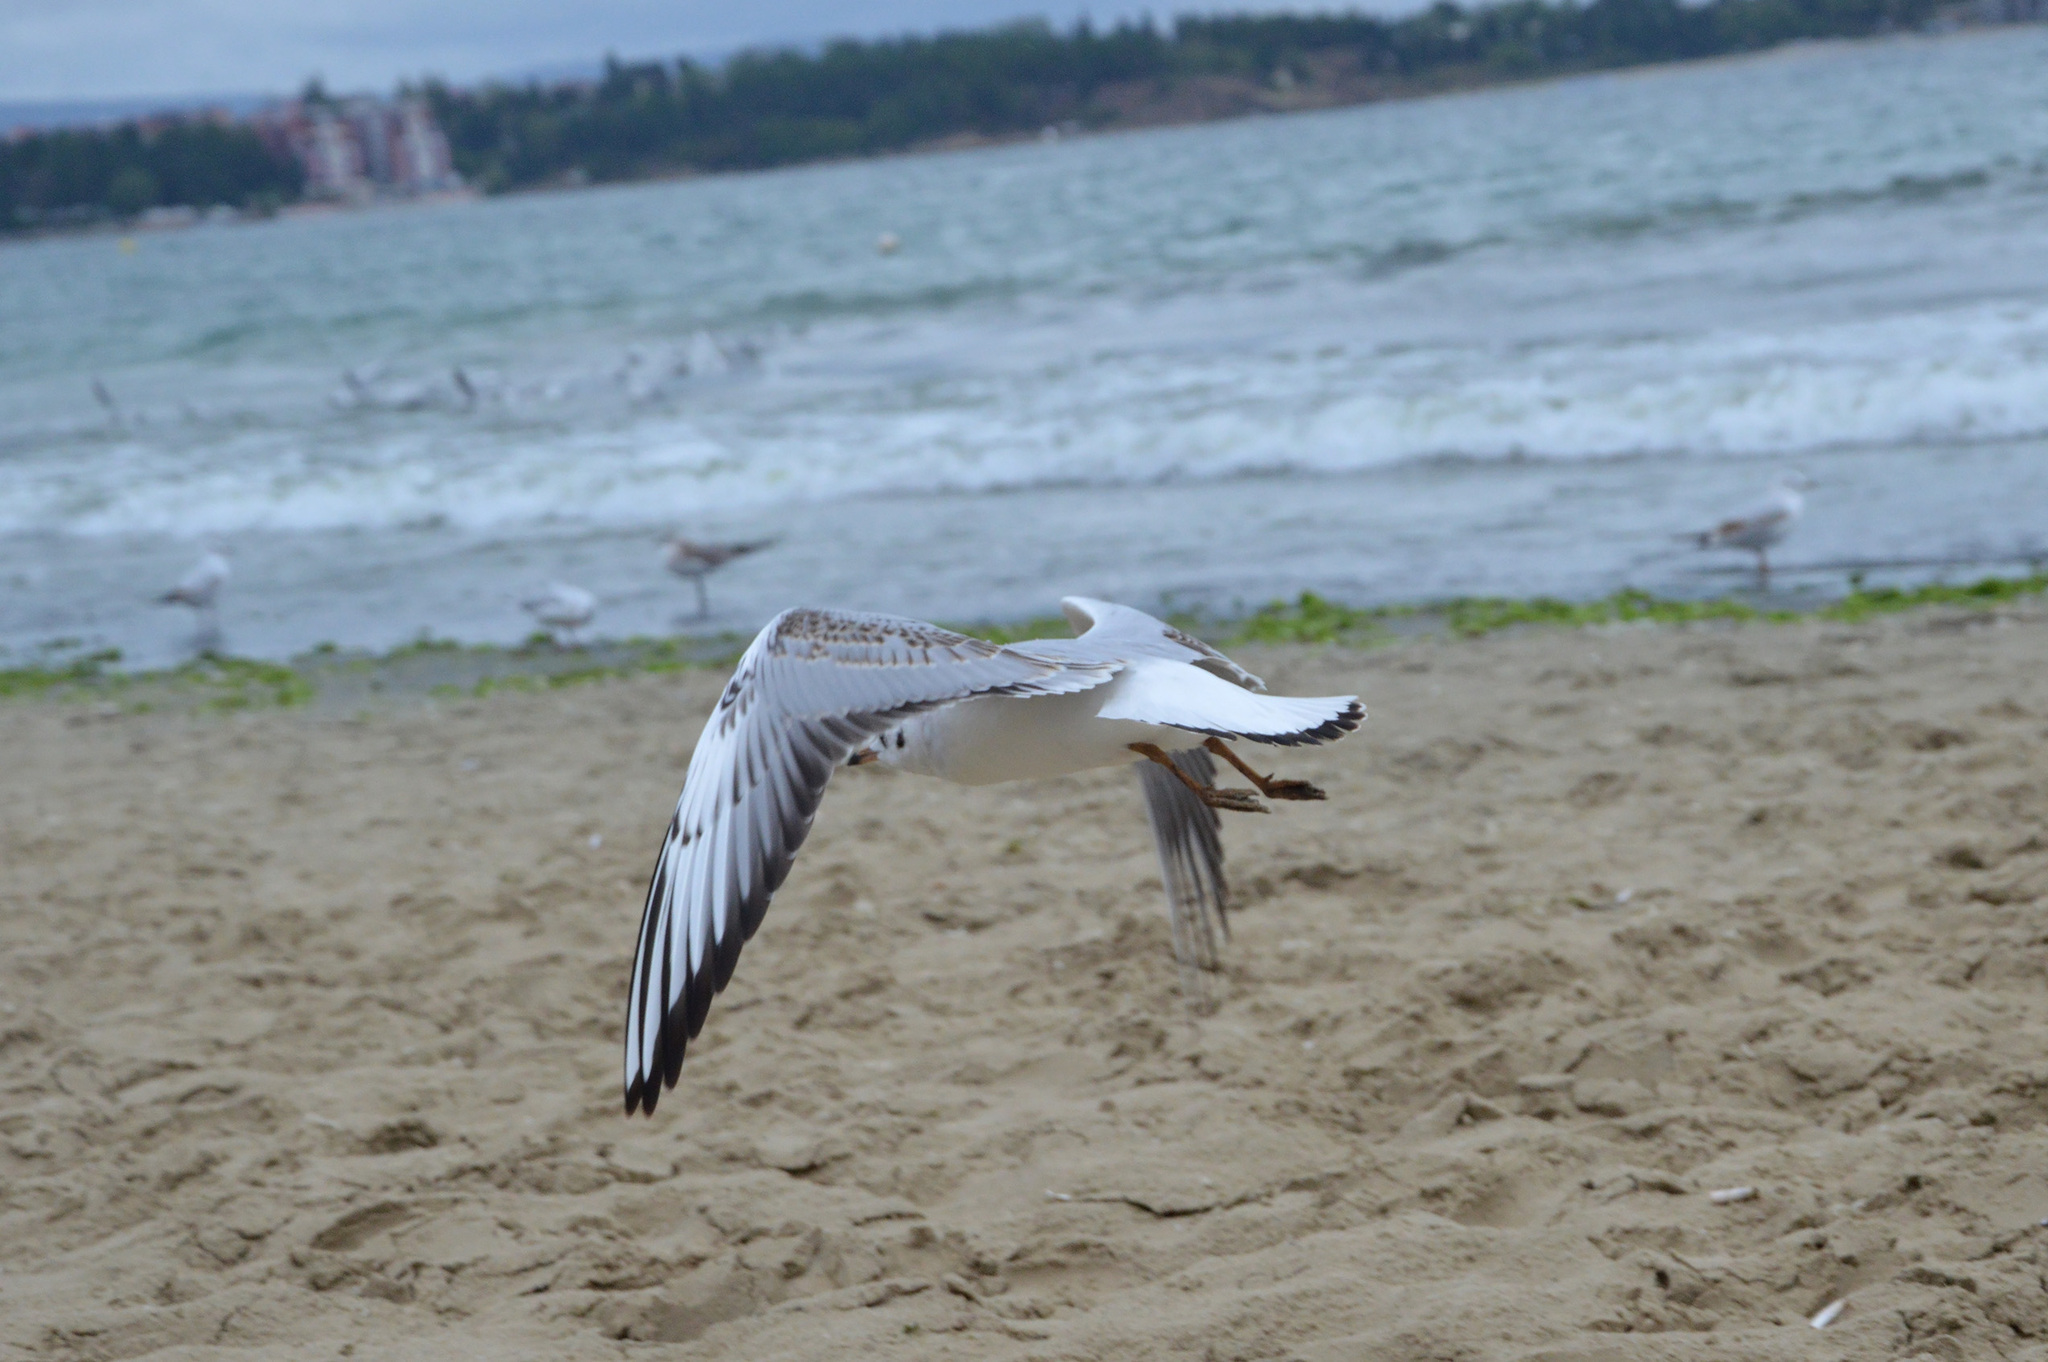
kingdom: Animalia
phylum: Chordata
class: Aves
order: Charadriiformes
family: Laridae
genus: Chroicocephalus
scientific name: Chroicocephalus ridibundus
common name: Black-headed gull
